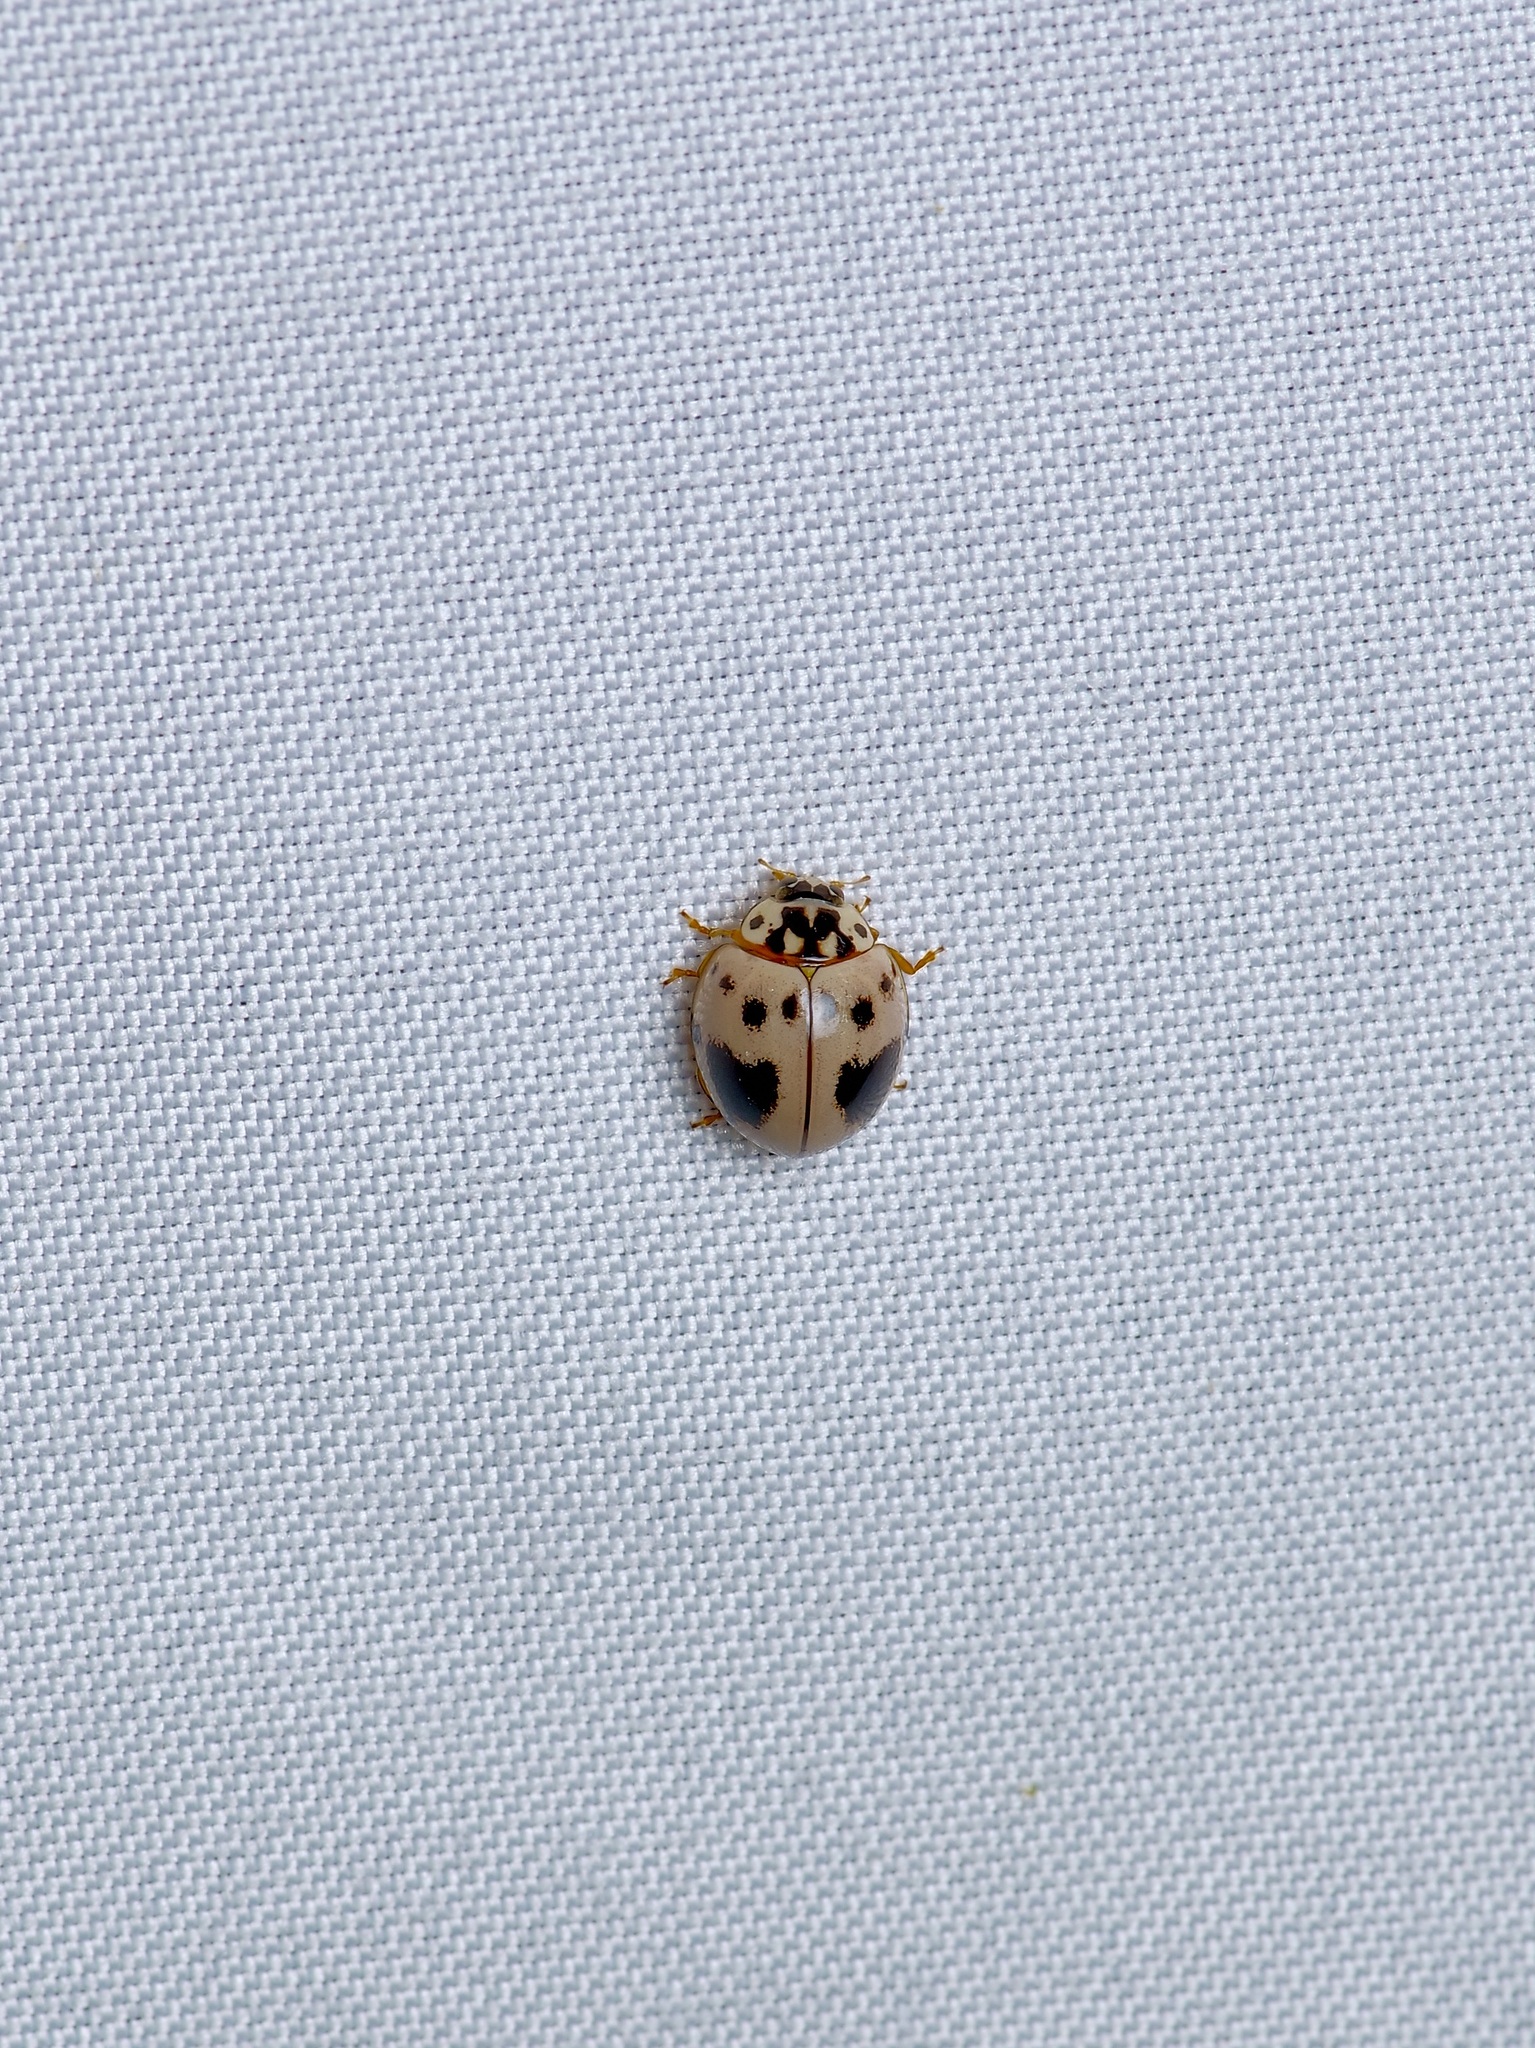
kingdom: Animalia
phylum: Arthropoda
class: Insecta
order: Coleoptera
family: Coccinellidae
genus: Olla
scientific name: Olla v-nigrum
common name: Ashy gray lady beetle
